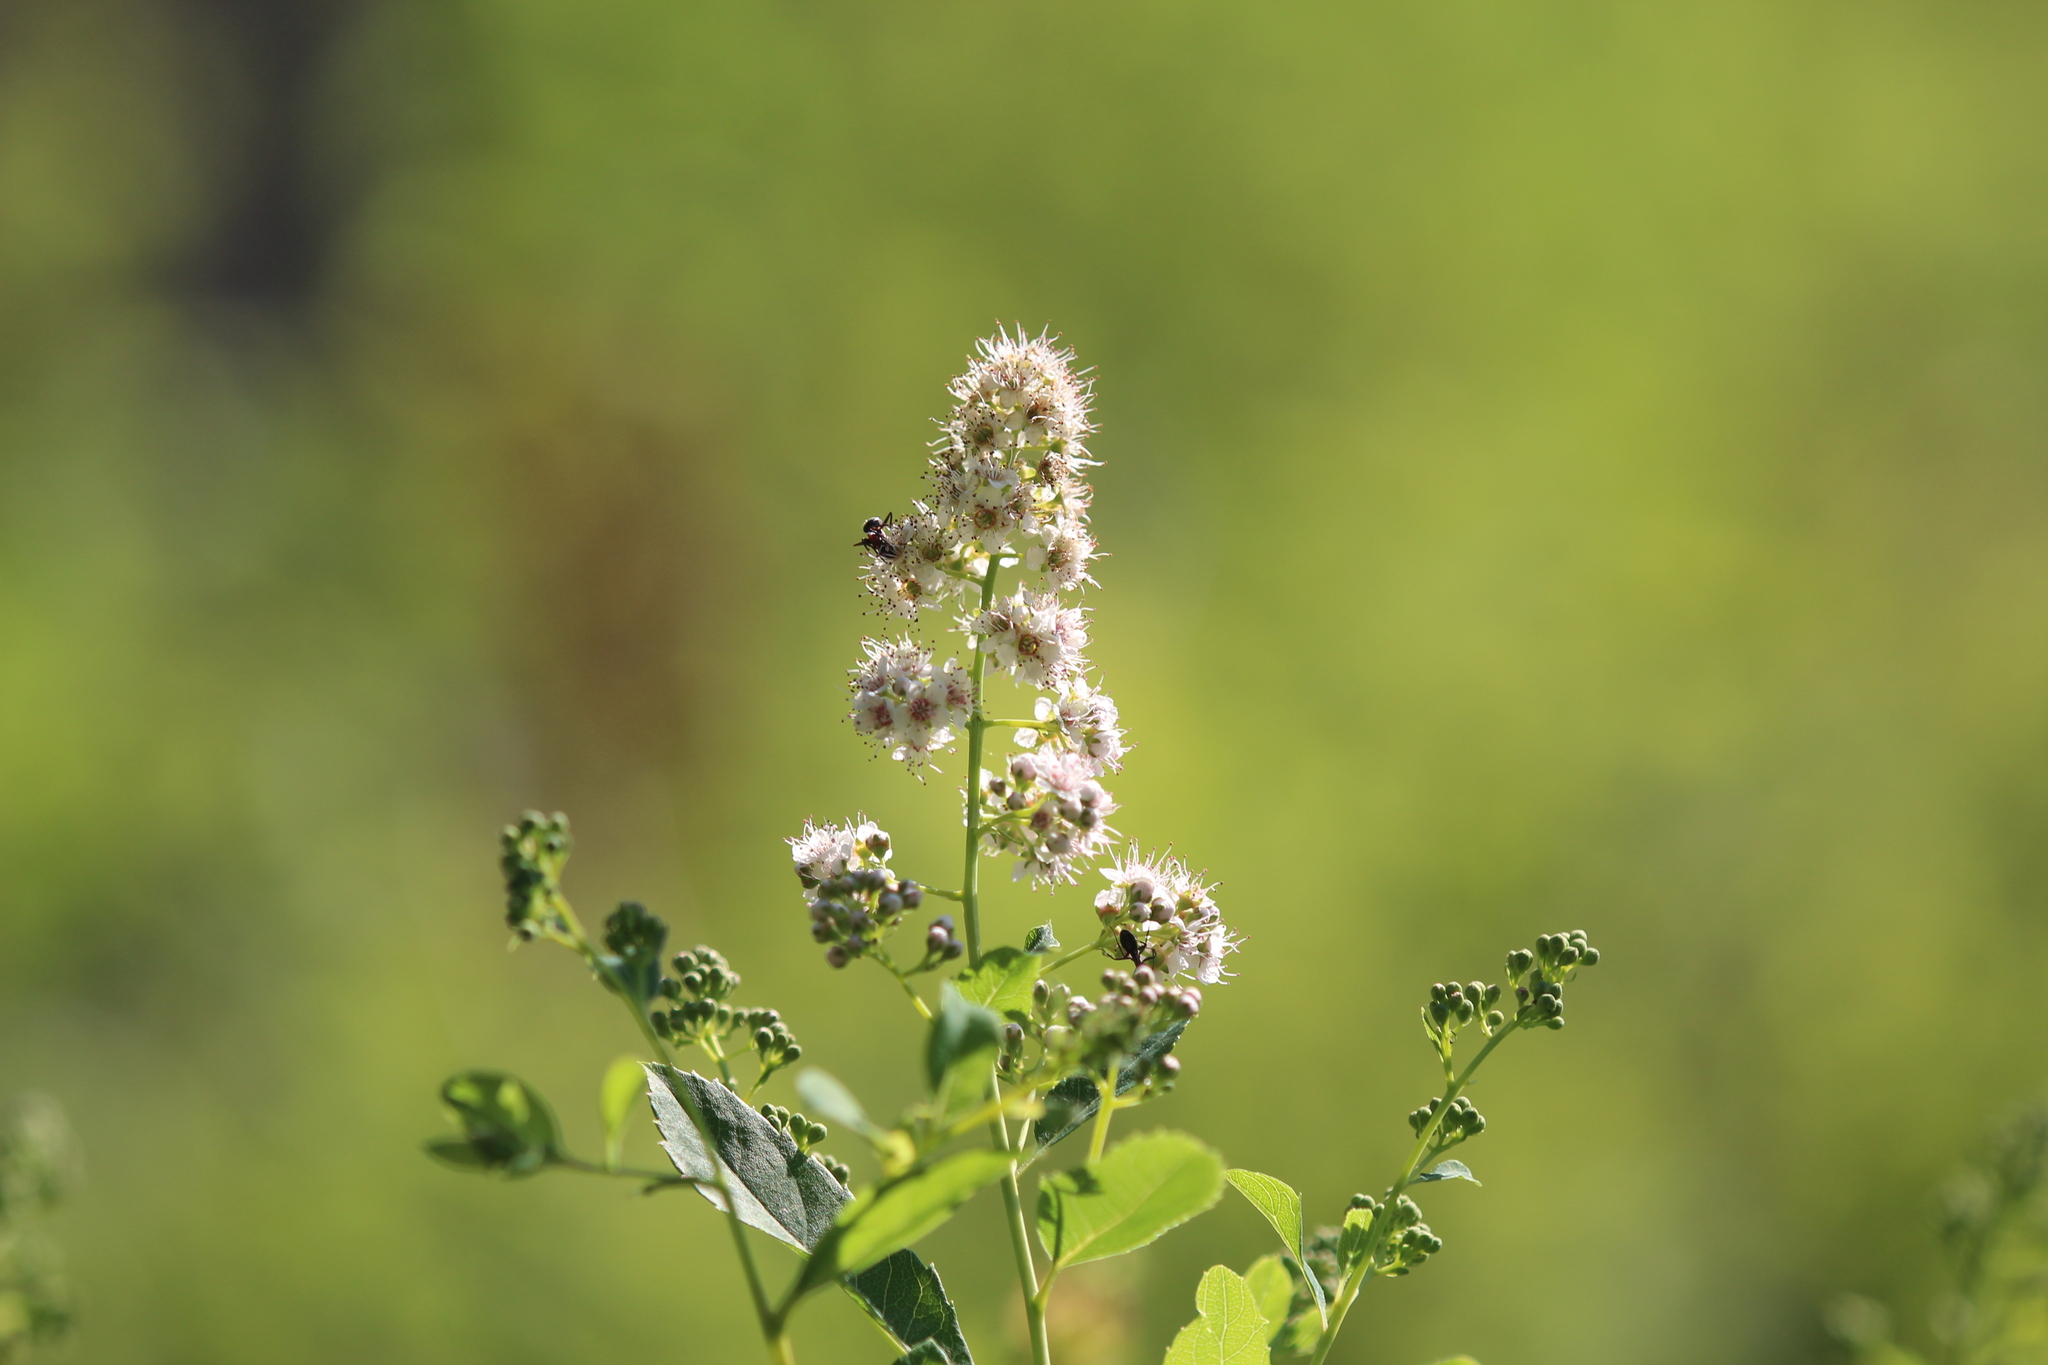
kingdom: Plantae
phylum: Tracheophyta
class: Magnoliopsida
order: Rosales
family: Rosaceae
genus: Spiraea
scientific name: Spiraea alba
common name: Pale bridewort
